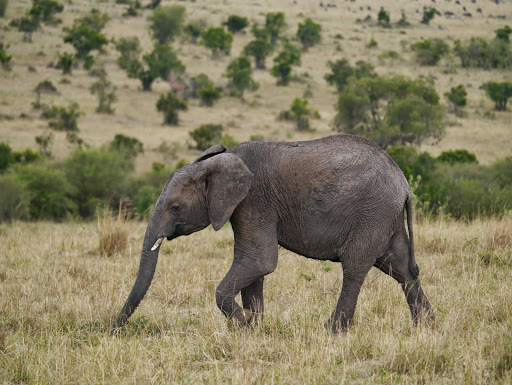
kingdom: Animalia
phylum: Chordata
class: Mammalia
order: Proboscidea
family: Elephantidae
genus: Loxodonta
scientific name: Loxodonta africana
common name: African elephant
